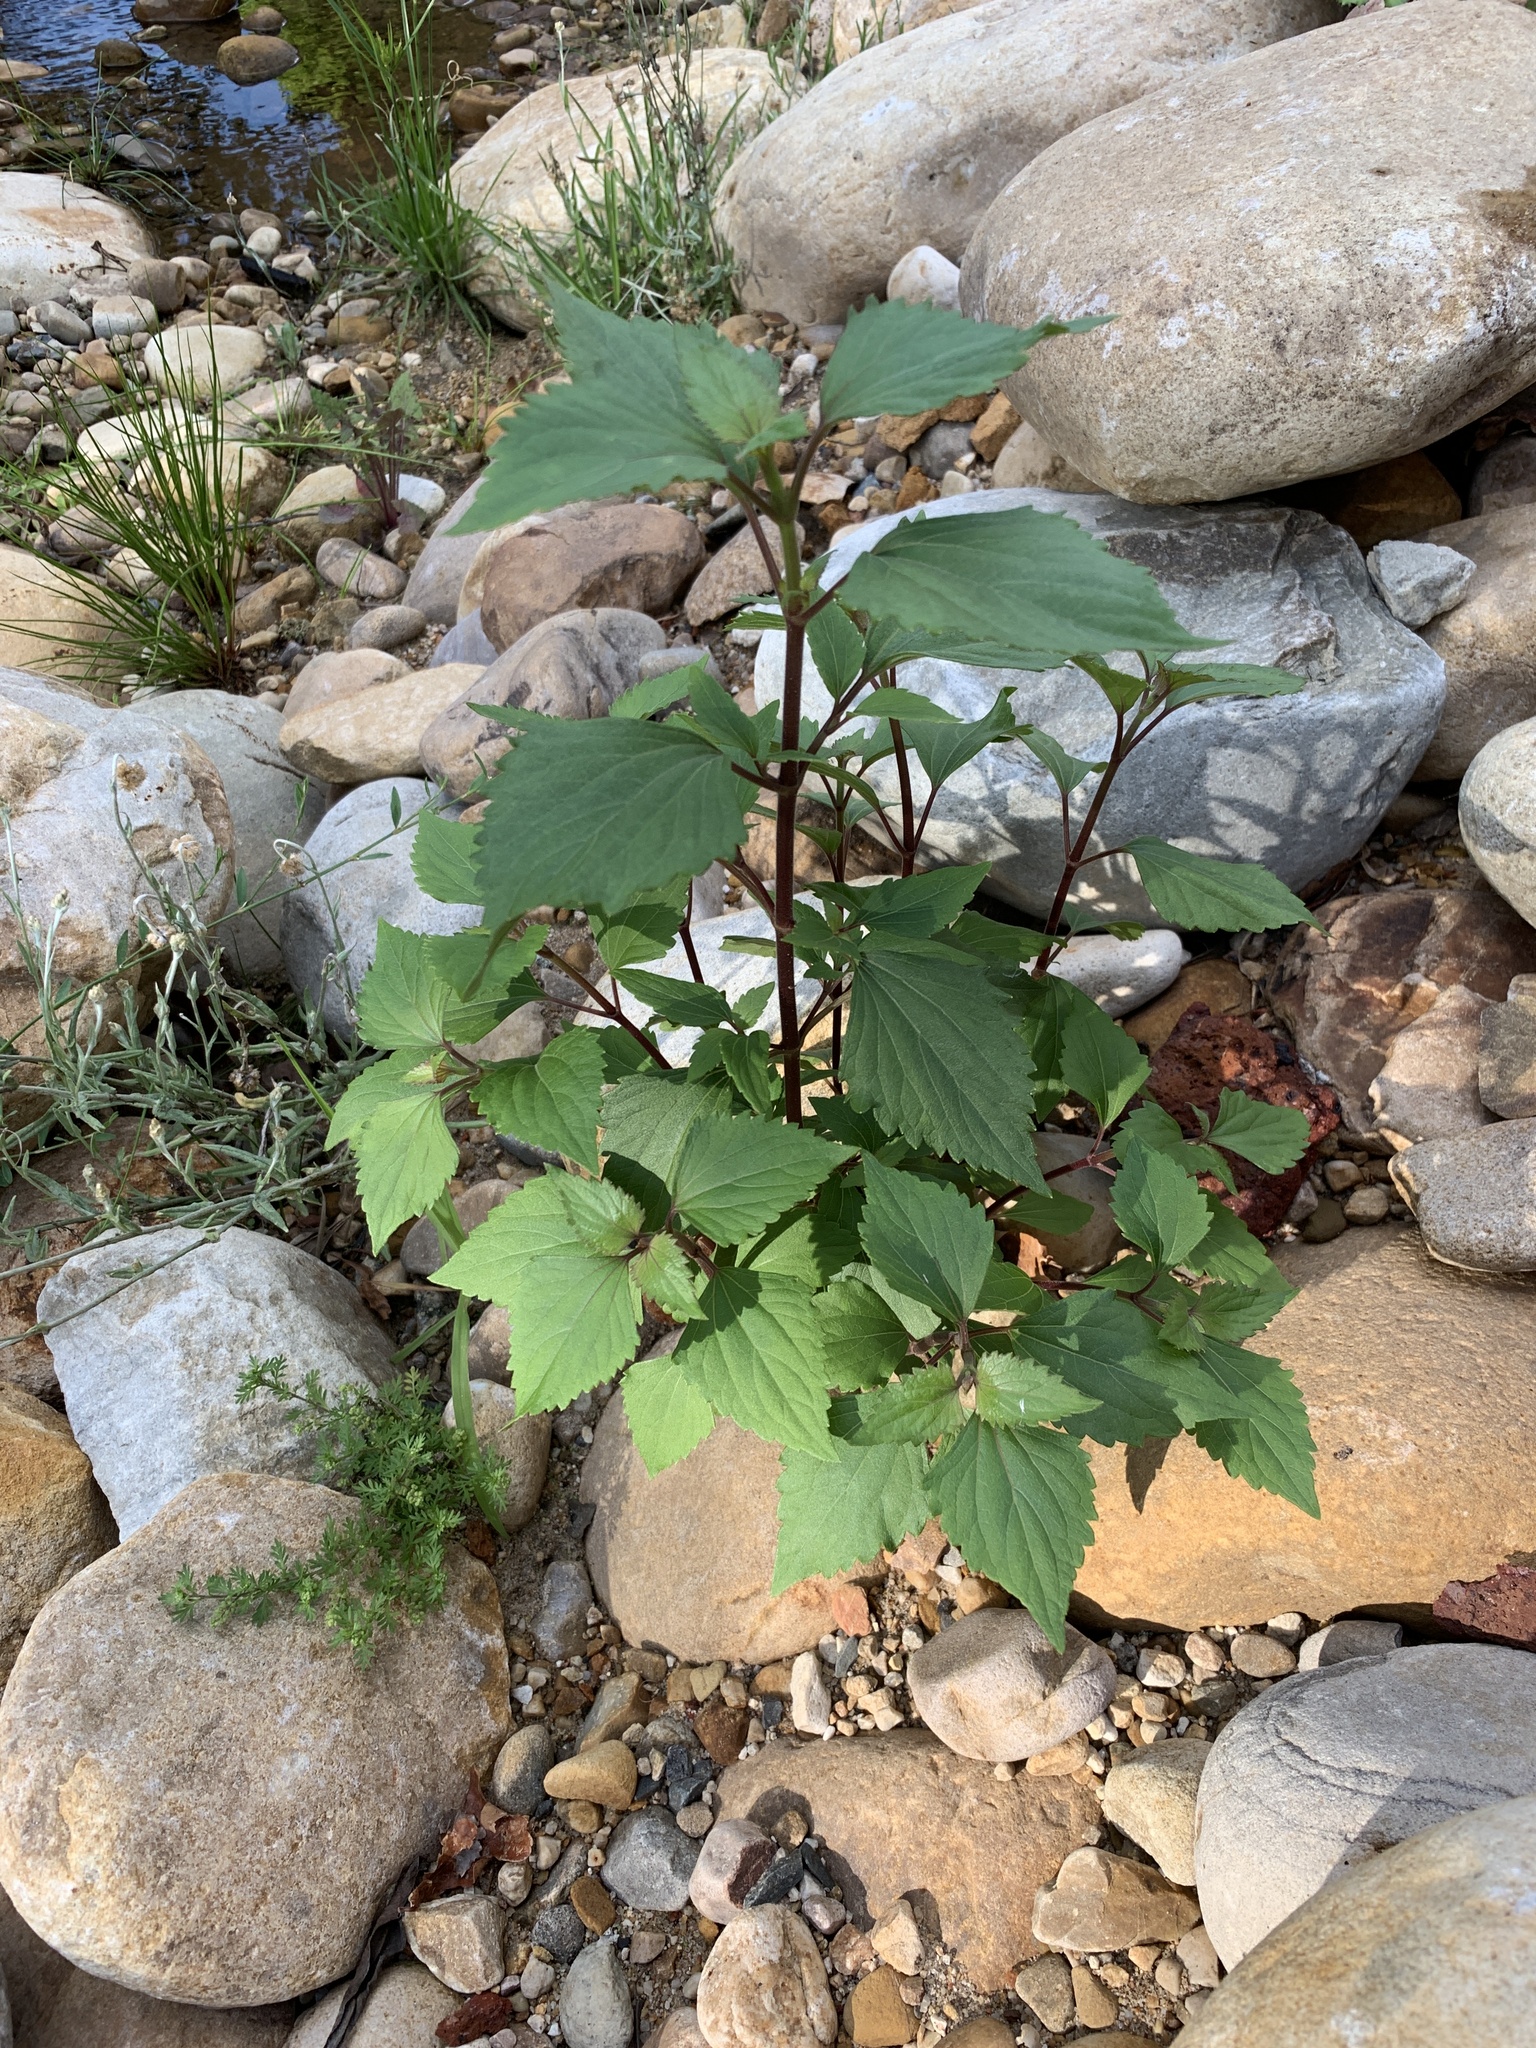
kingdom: Plantae
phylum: Tracheophyta
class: Magnoliopsida
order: Asterales
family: Asteraceae
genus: Ageratina
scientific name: Ageratina adenophora
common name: Sticky snakeroot
